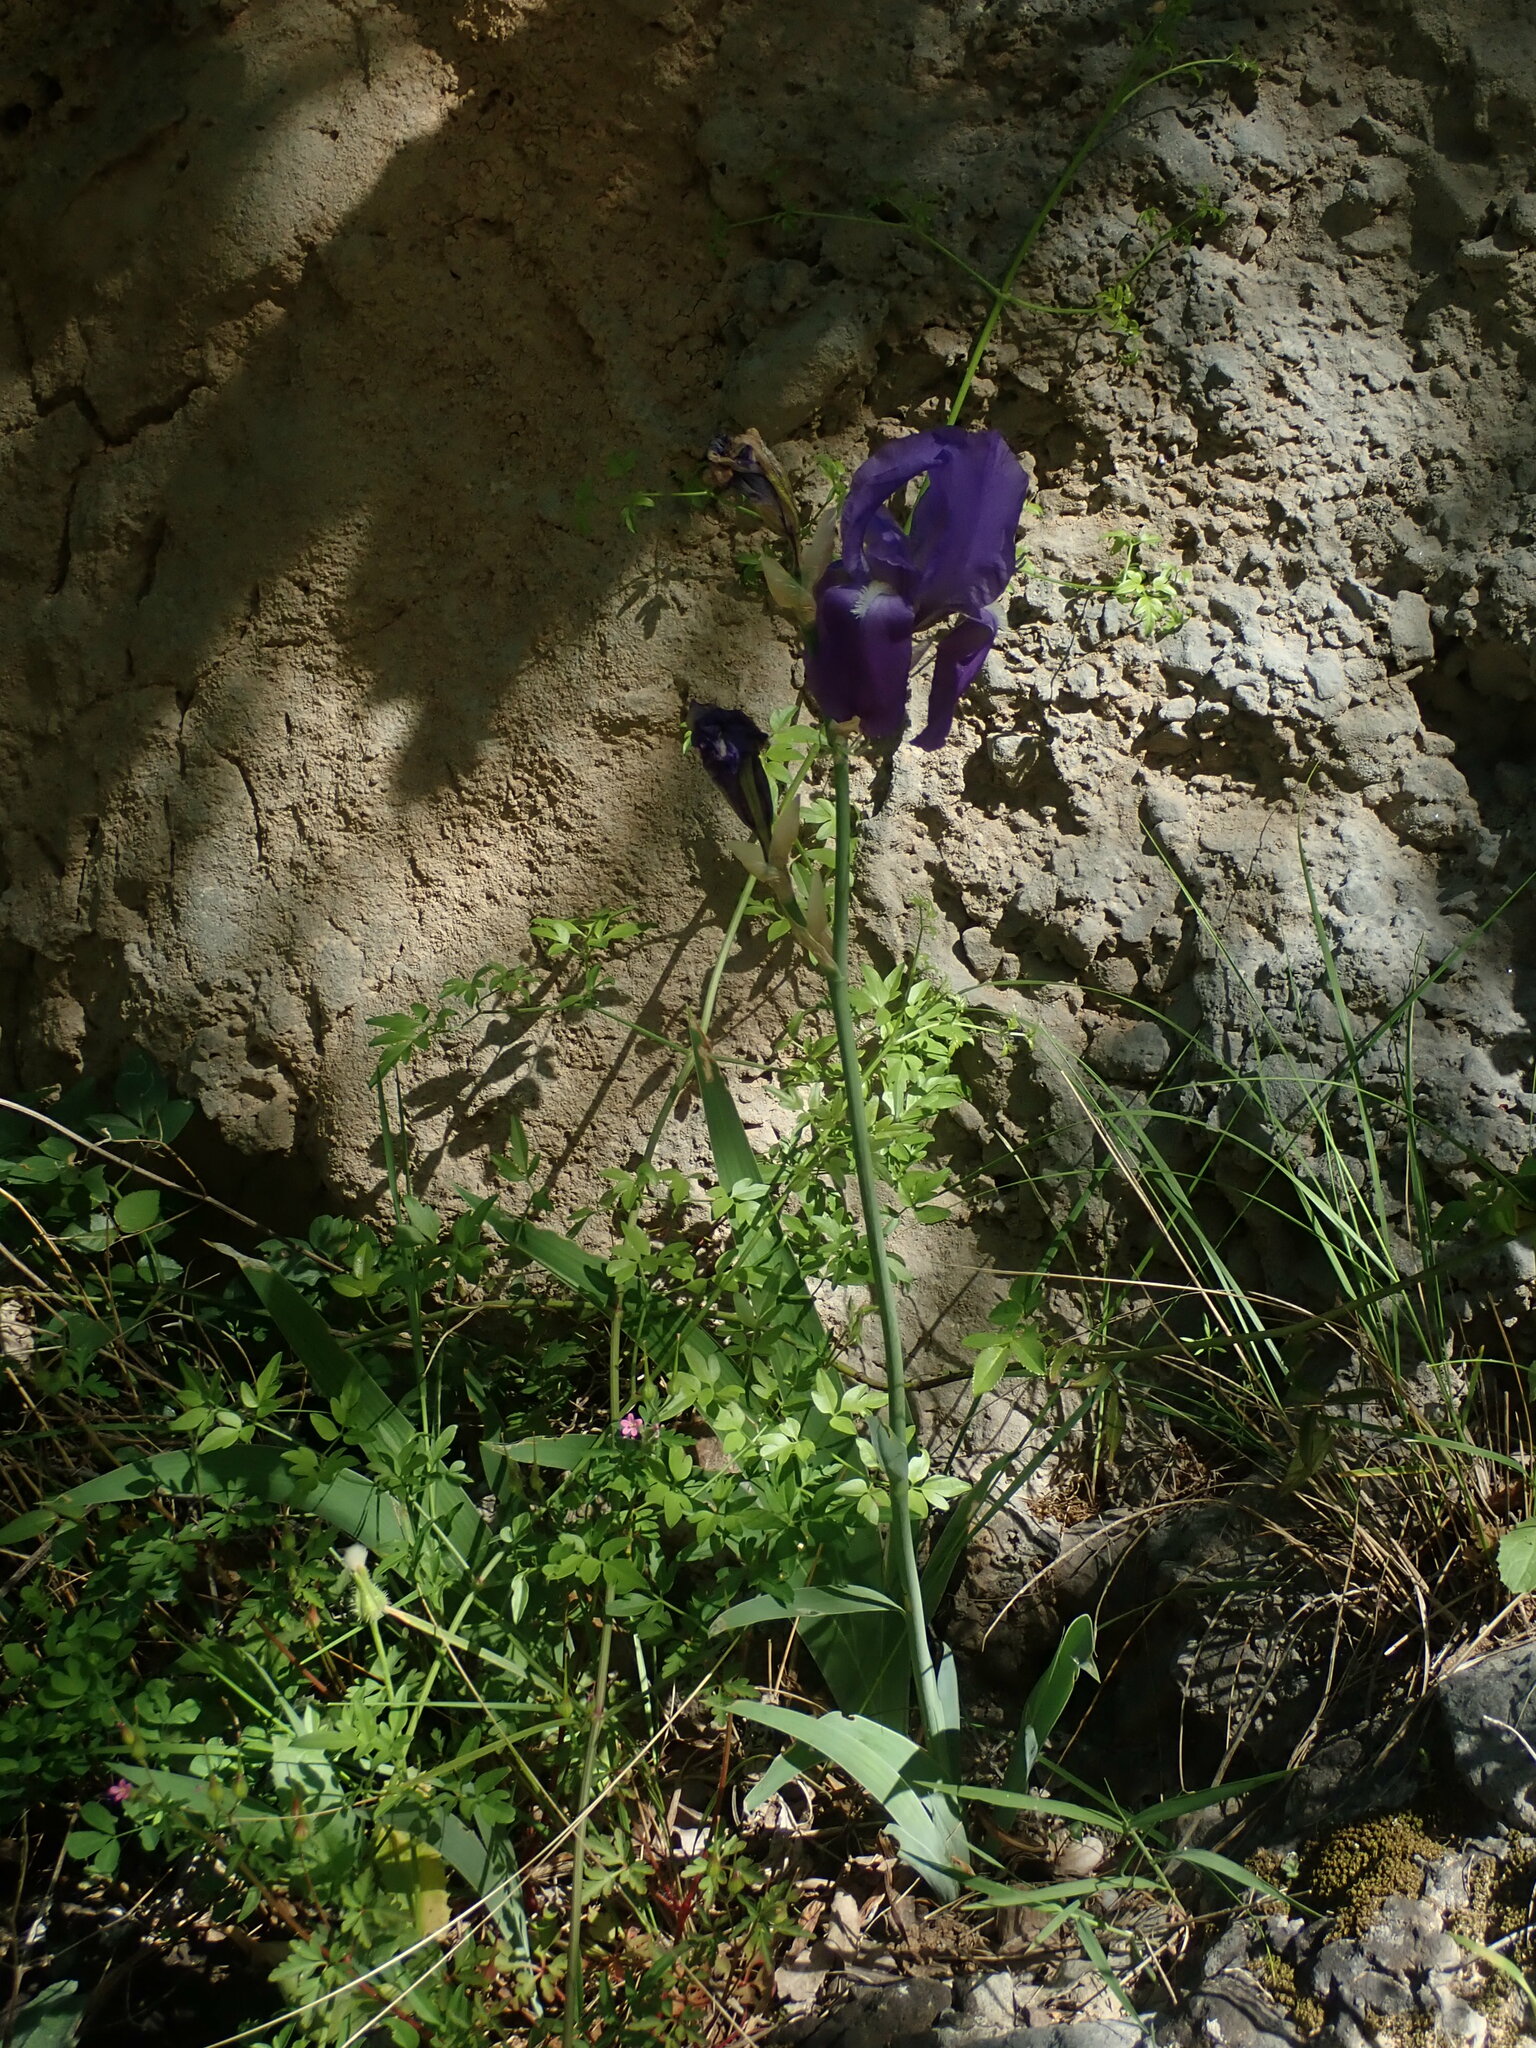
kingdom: Plantae
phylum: Tracheophyta
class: Liliopsida
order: Asparagales
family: Iridaceae
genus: Iris
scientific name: Iris pallida
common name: Sweet iris
